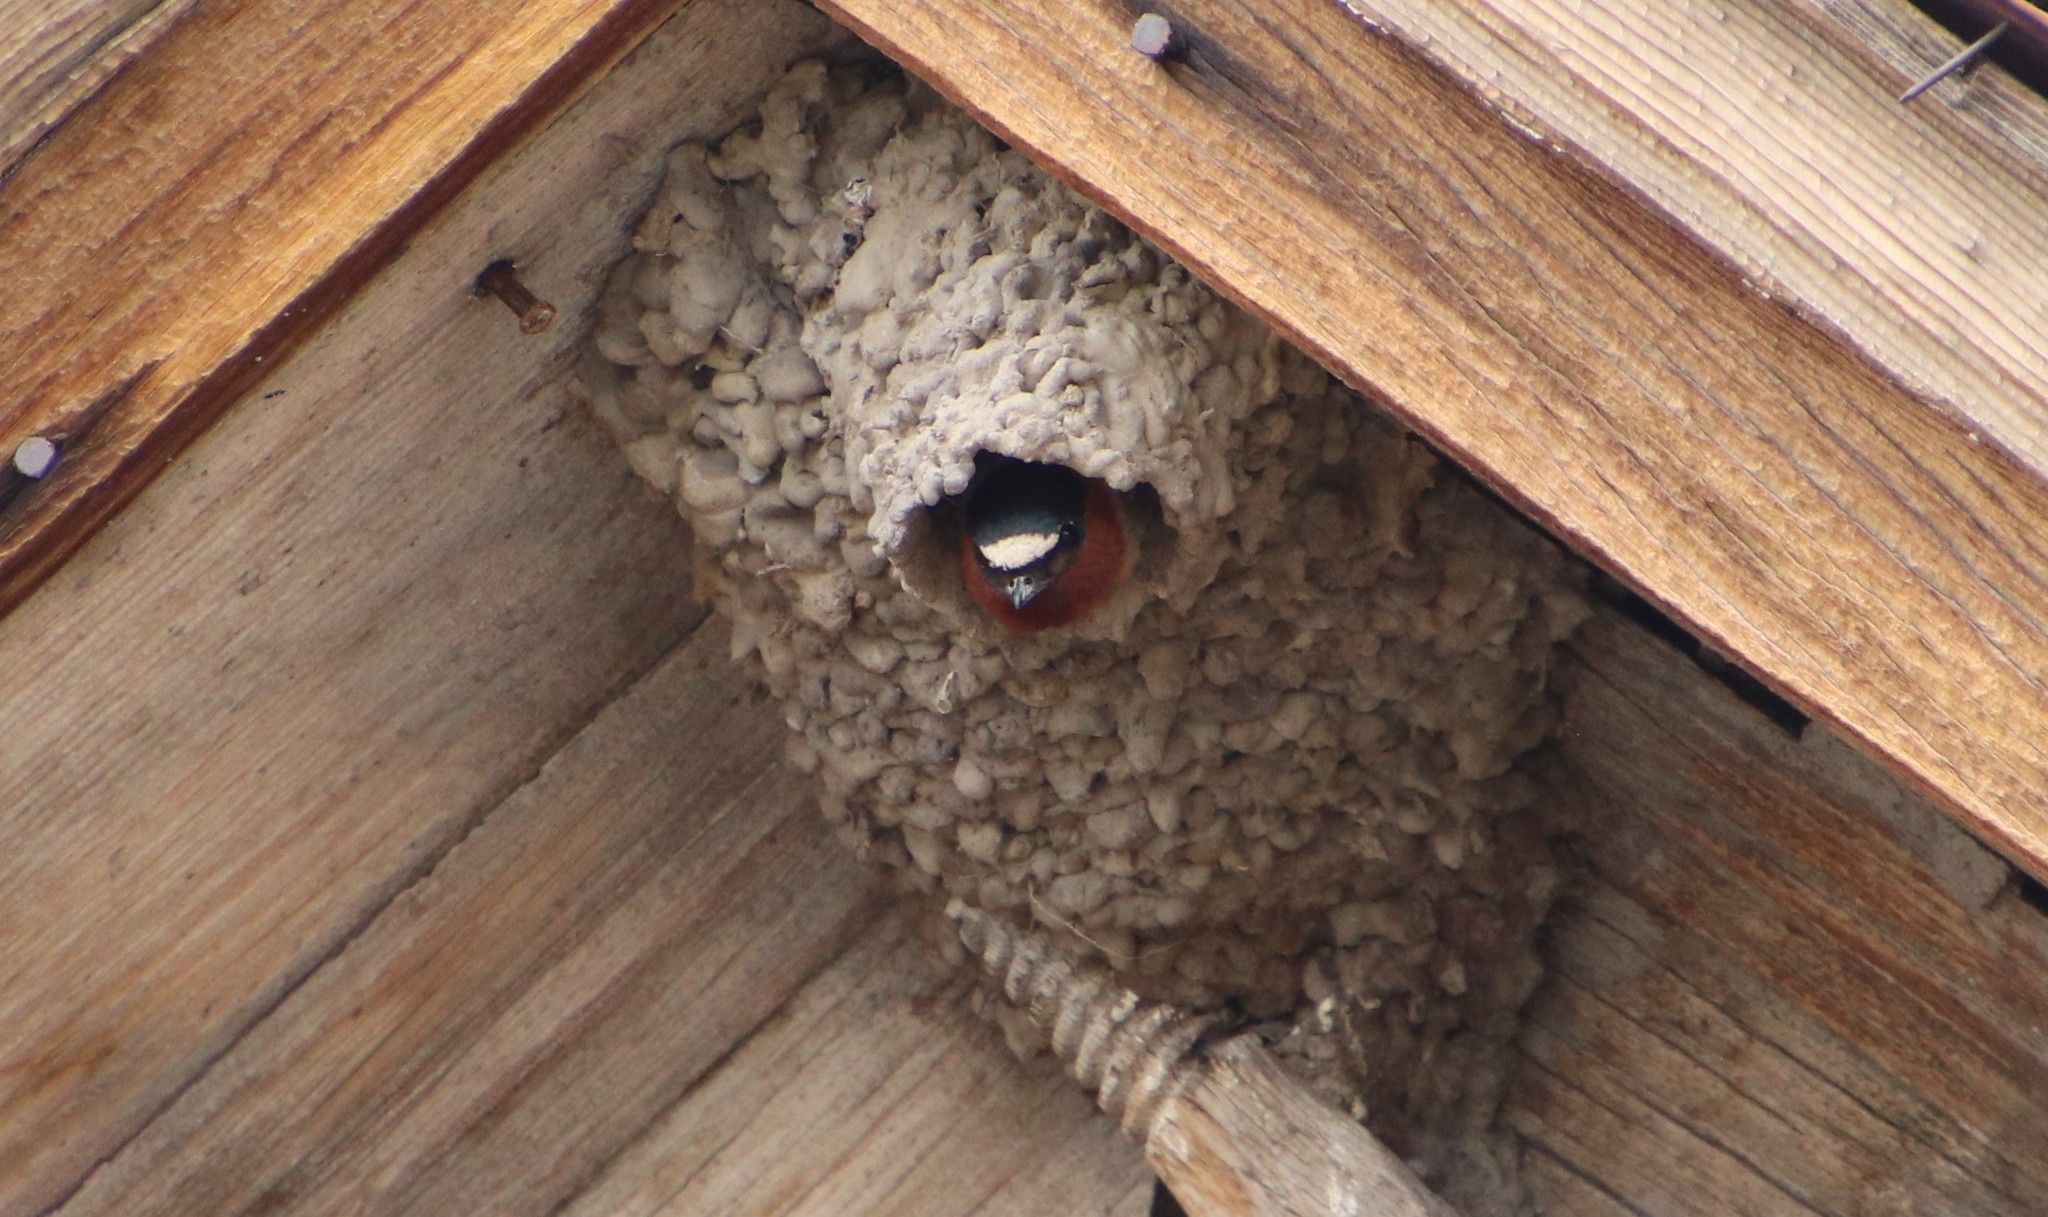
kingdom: Animalia
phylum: Chordata
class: Aves
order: Passeriformes
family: Hirundinidae
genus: Petrochelidon
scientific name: Petrochelidon pyrrhonota
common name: American cliff swallow
